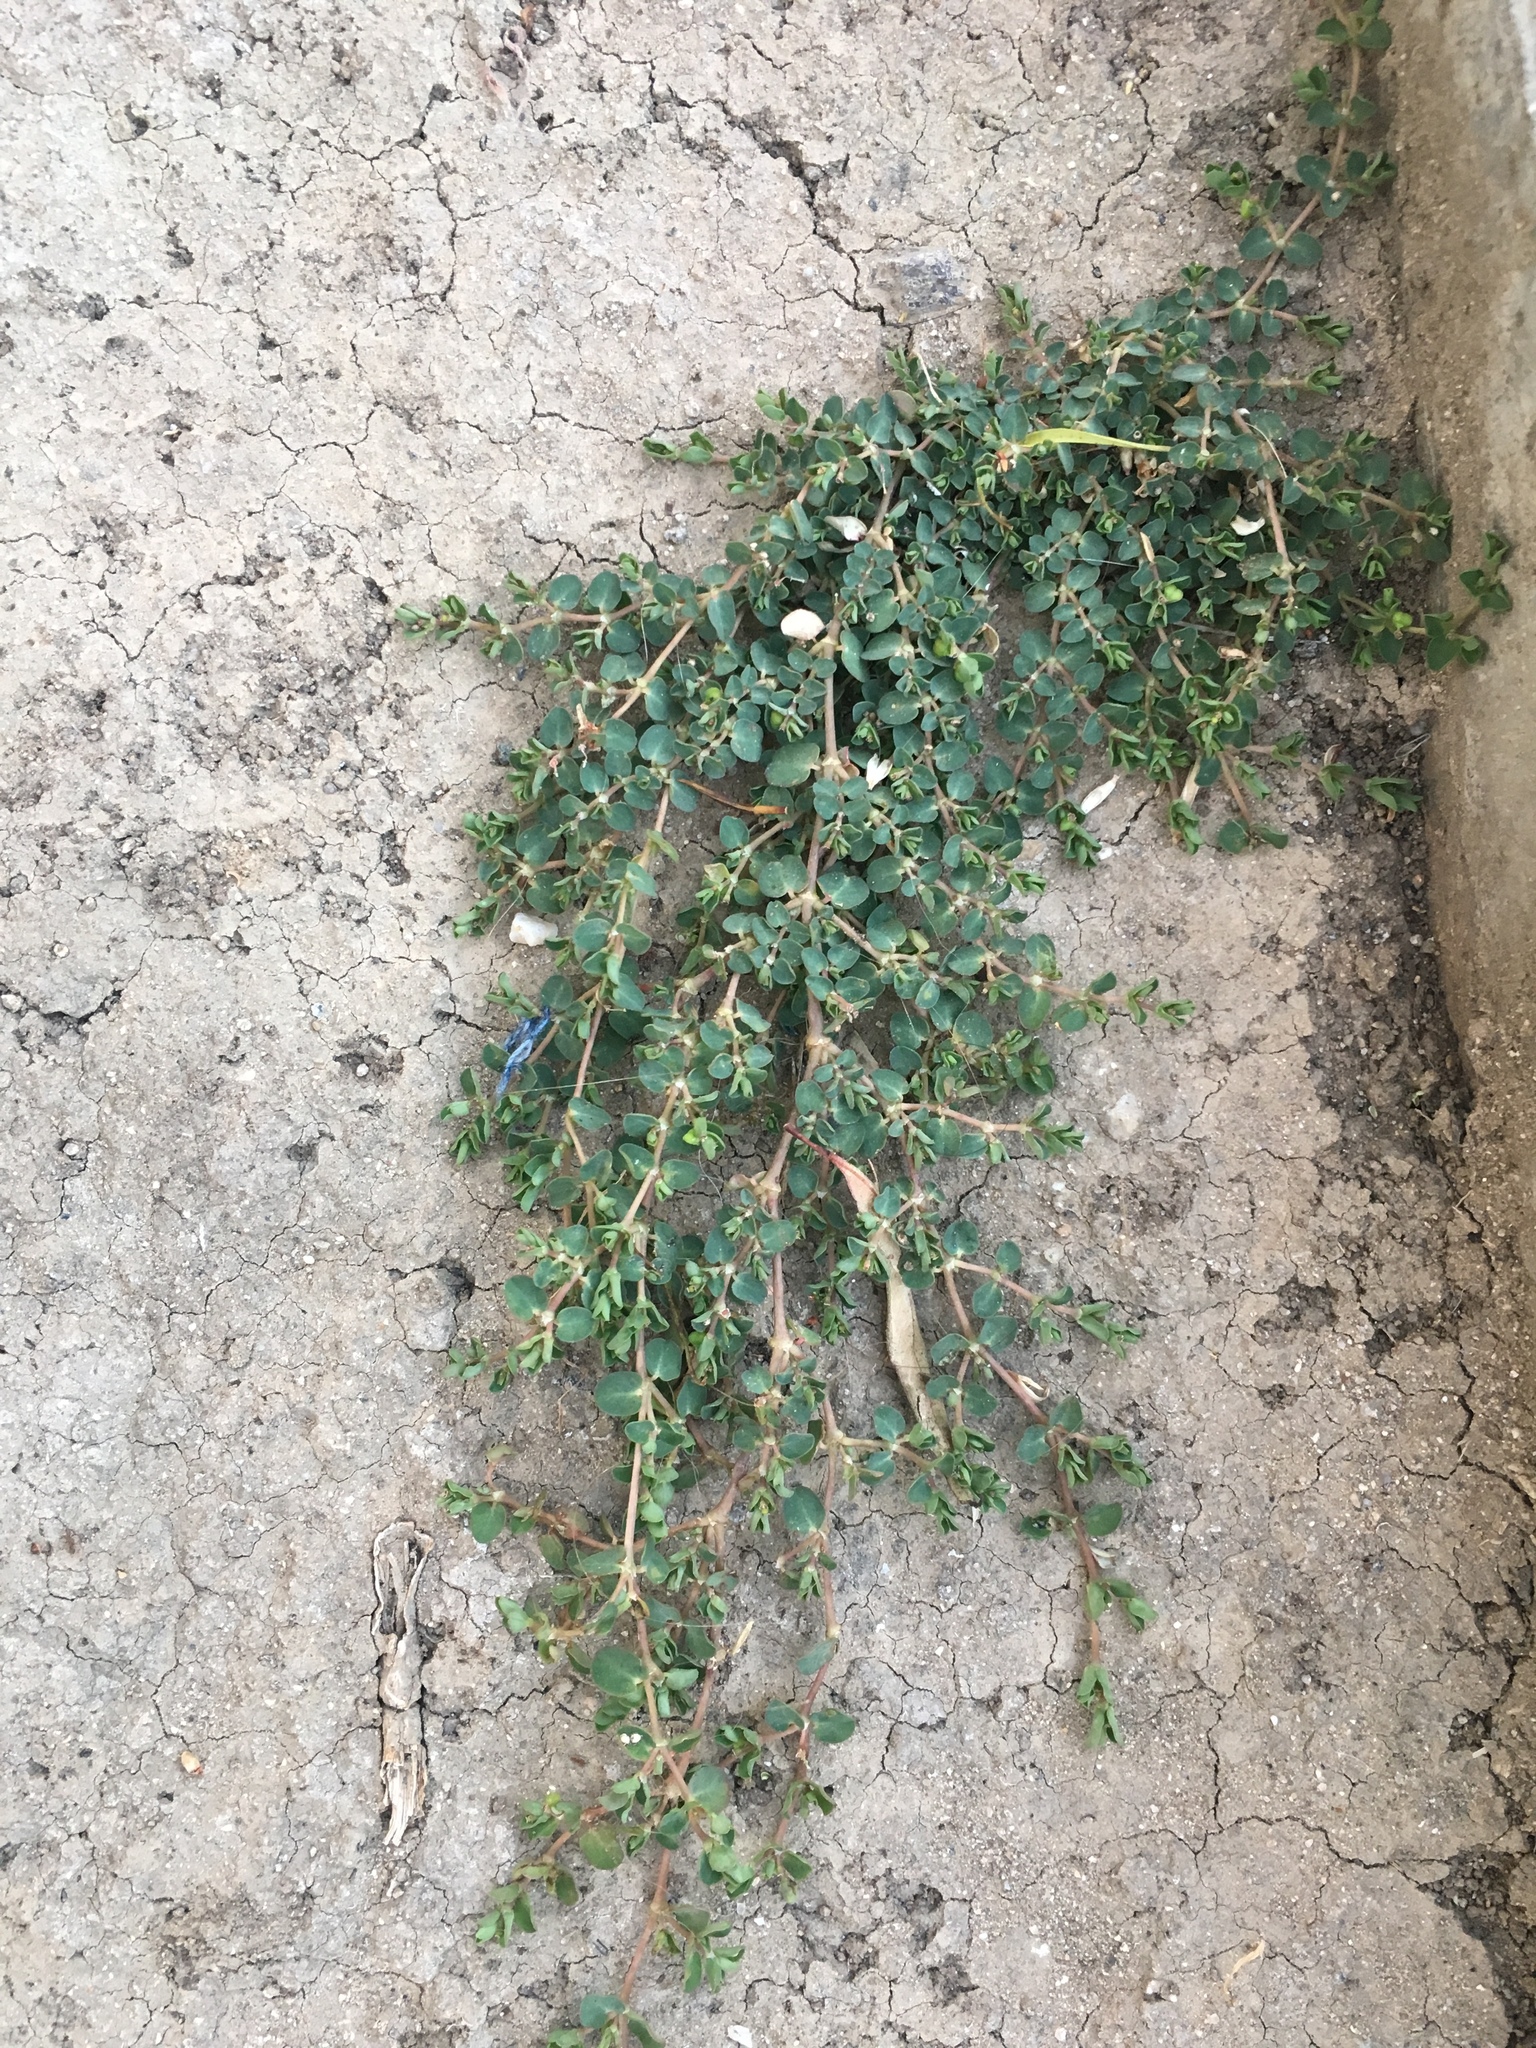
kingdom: Plantae
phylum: Tracheophyta
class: Magnoliopsida
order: Malpighiales
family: Euphorbiaceae
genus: Euphorbia
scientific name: Euphorbia serpens
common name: Matted sandmat
